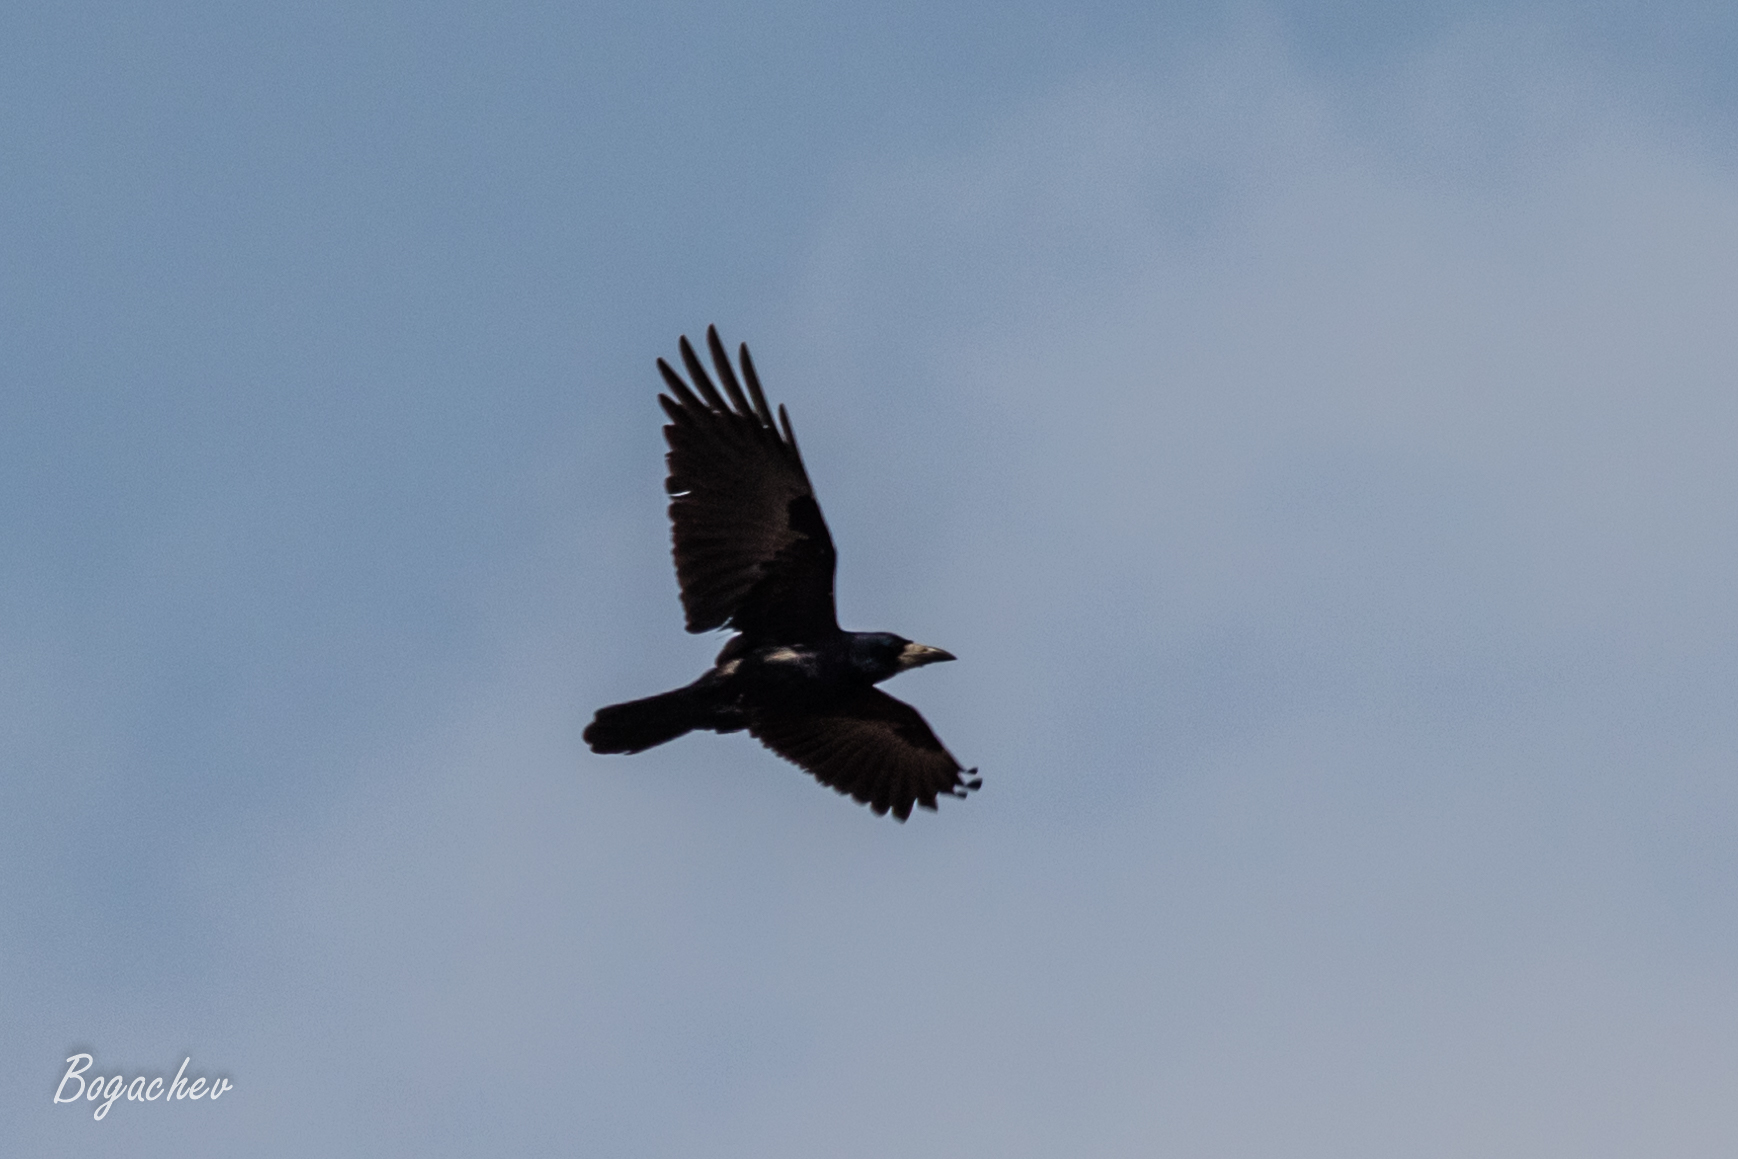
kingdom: Animalia
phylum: Chordata
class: Aves
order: Passeriformes
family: Corvidae
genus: Corvus
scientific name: Corvus frugilegus
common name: Rook
